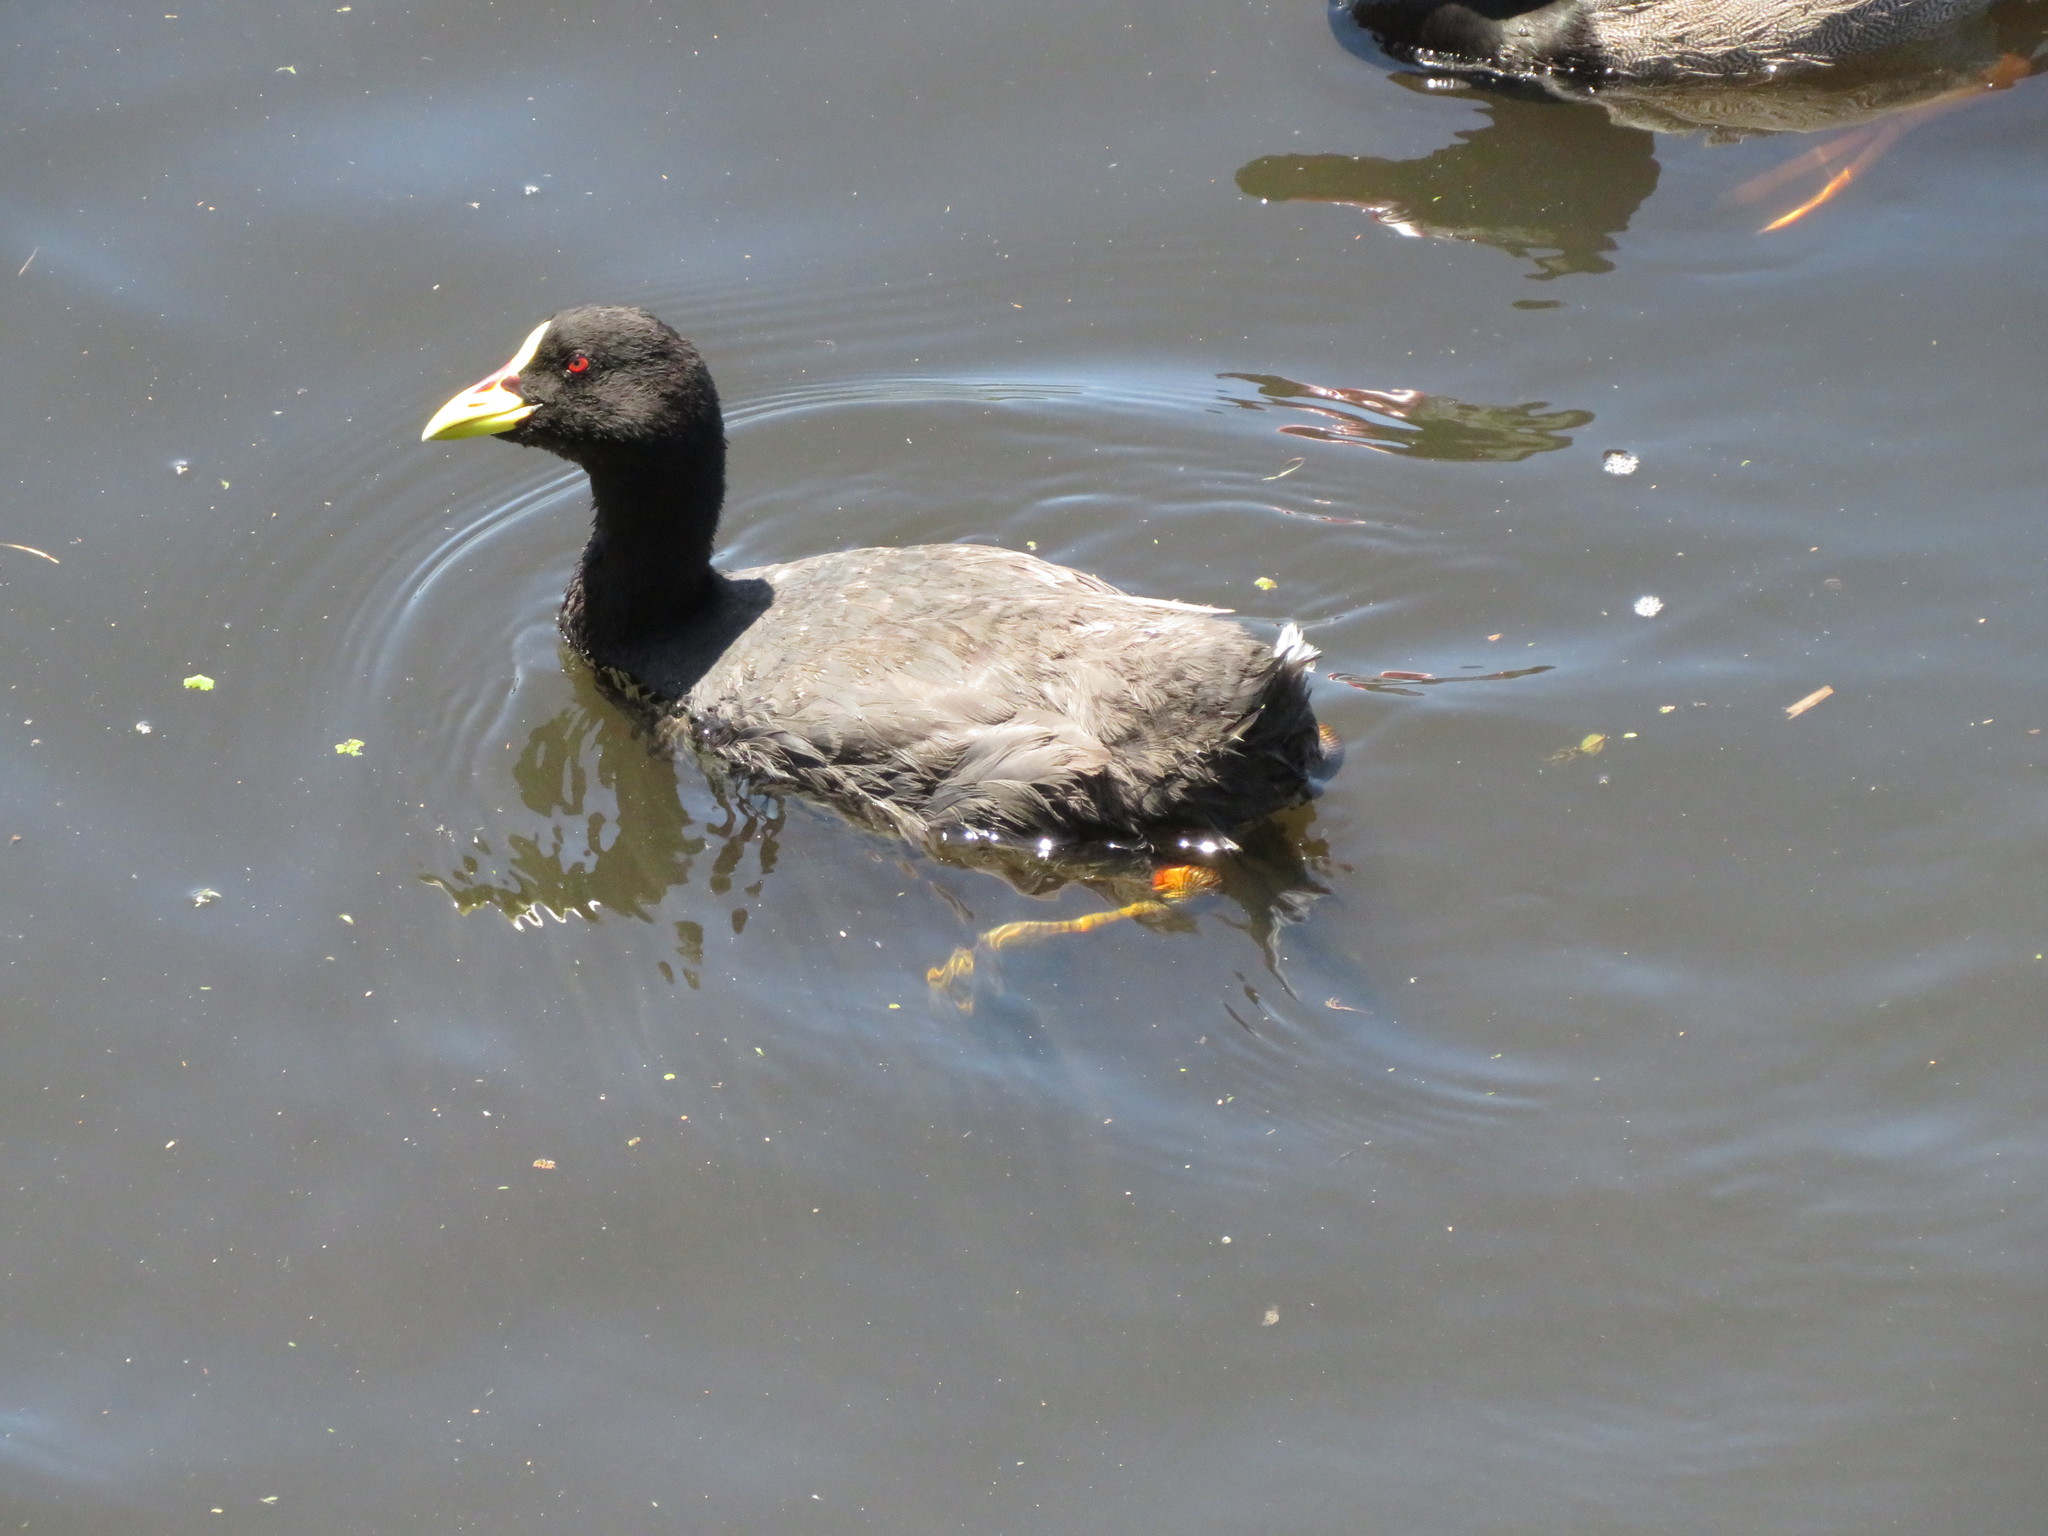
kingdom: Animalia
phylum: Chordata
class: Aves
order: Gruiformes
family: Rallidae
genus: Fulica
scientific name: Fulica armillata
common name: Red-gartered coot
